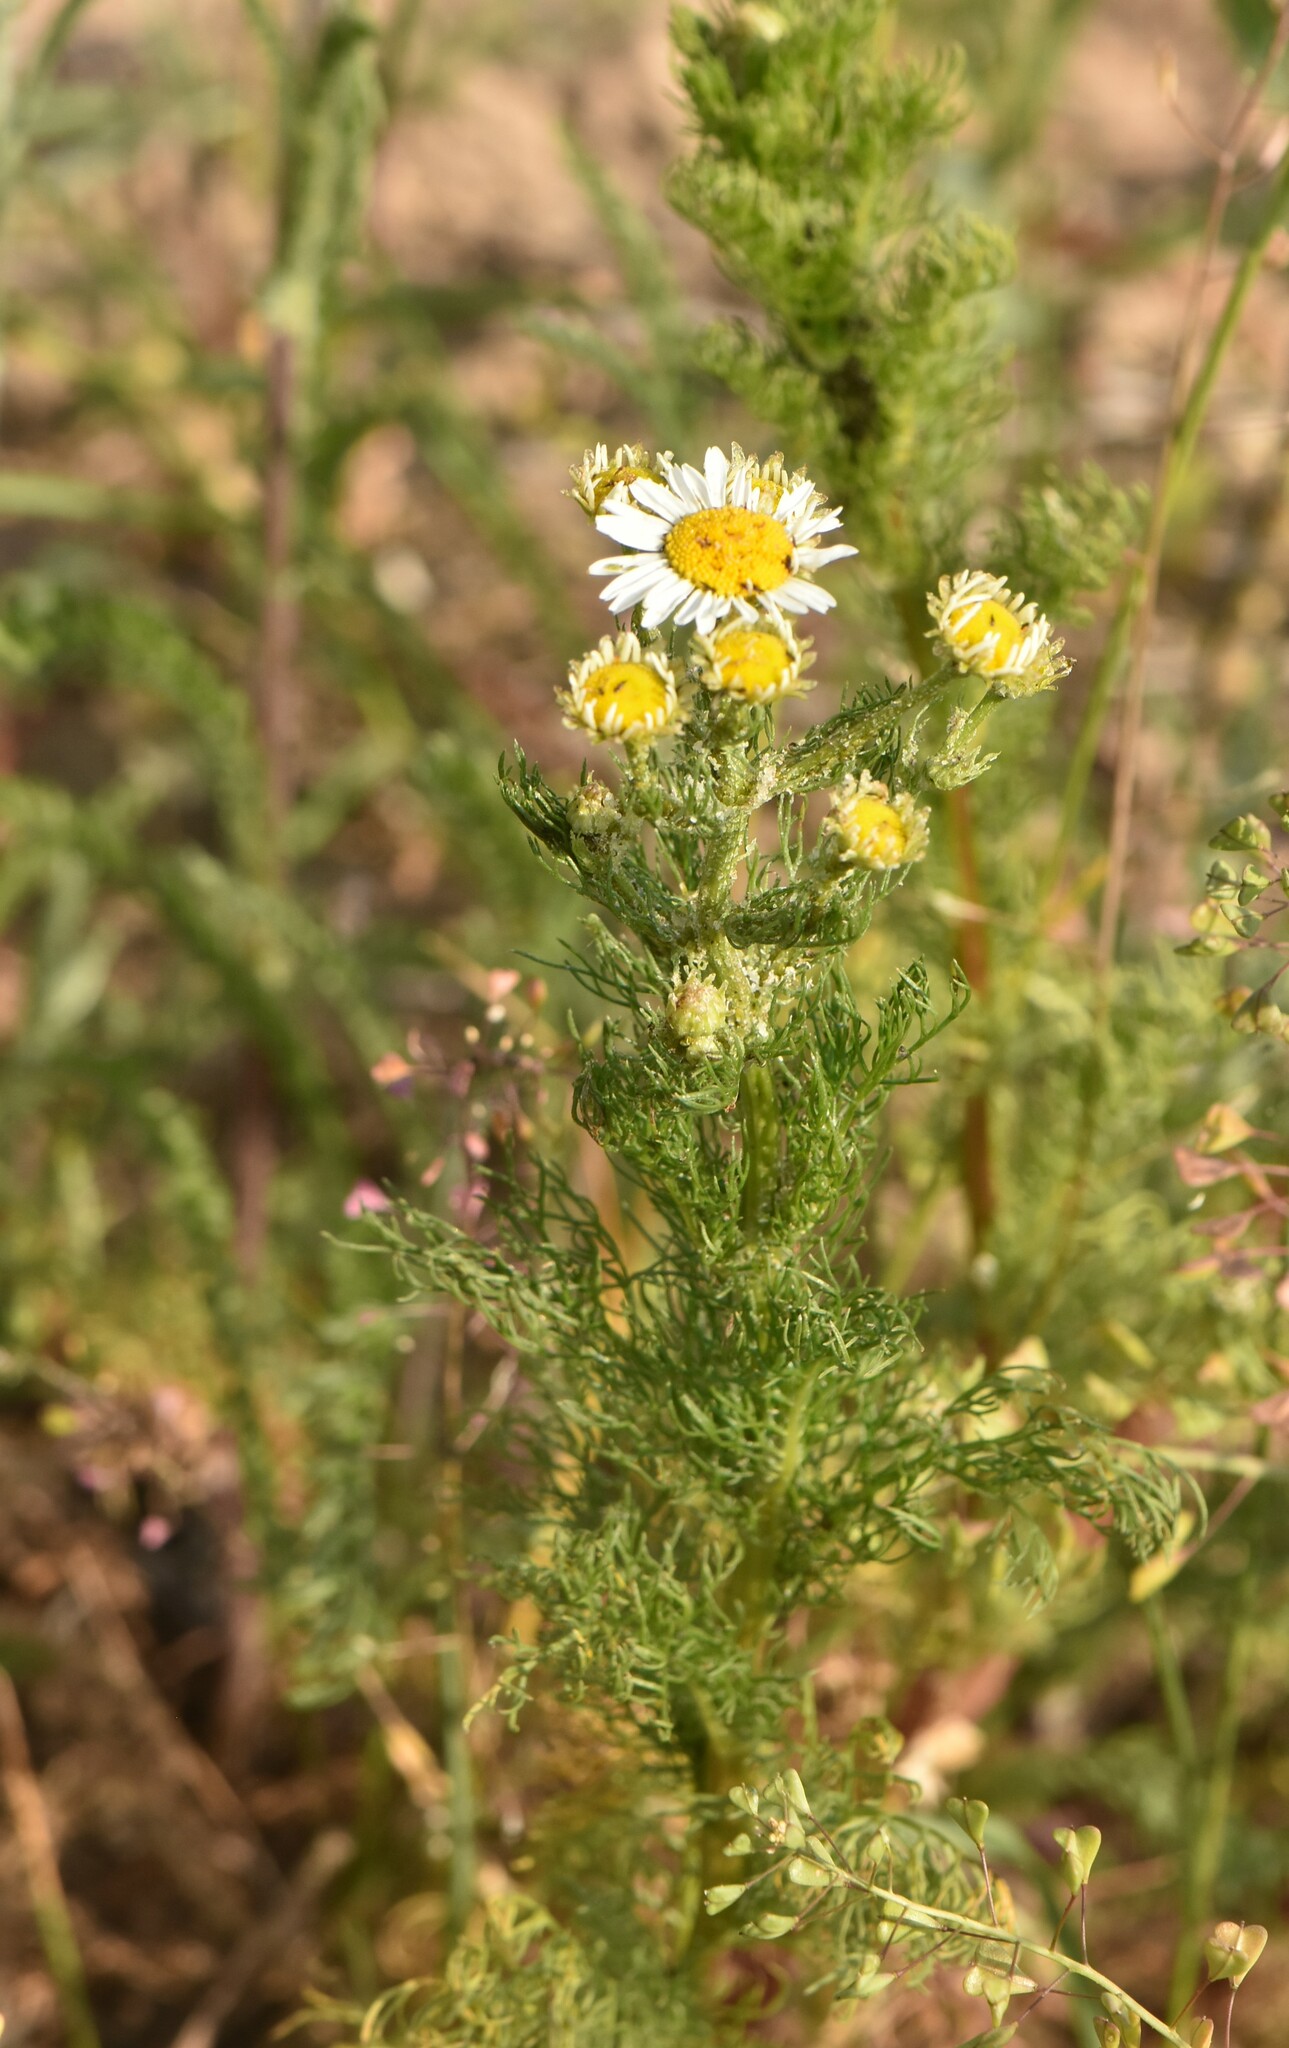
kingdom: Plantae
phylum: Tracheophyta
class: Magnoliopsida
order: Asterales
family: Asteraceae
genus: Tripleurospermum
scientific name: Tripleurospermum inodorum
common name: Scentless mayweed
